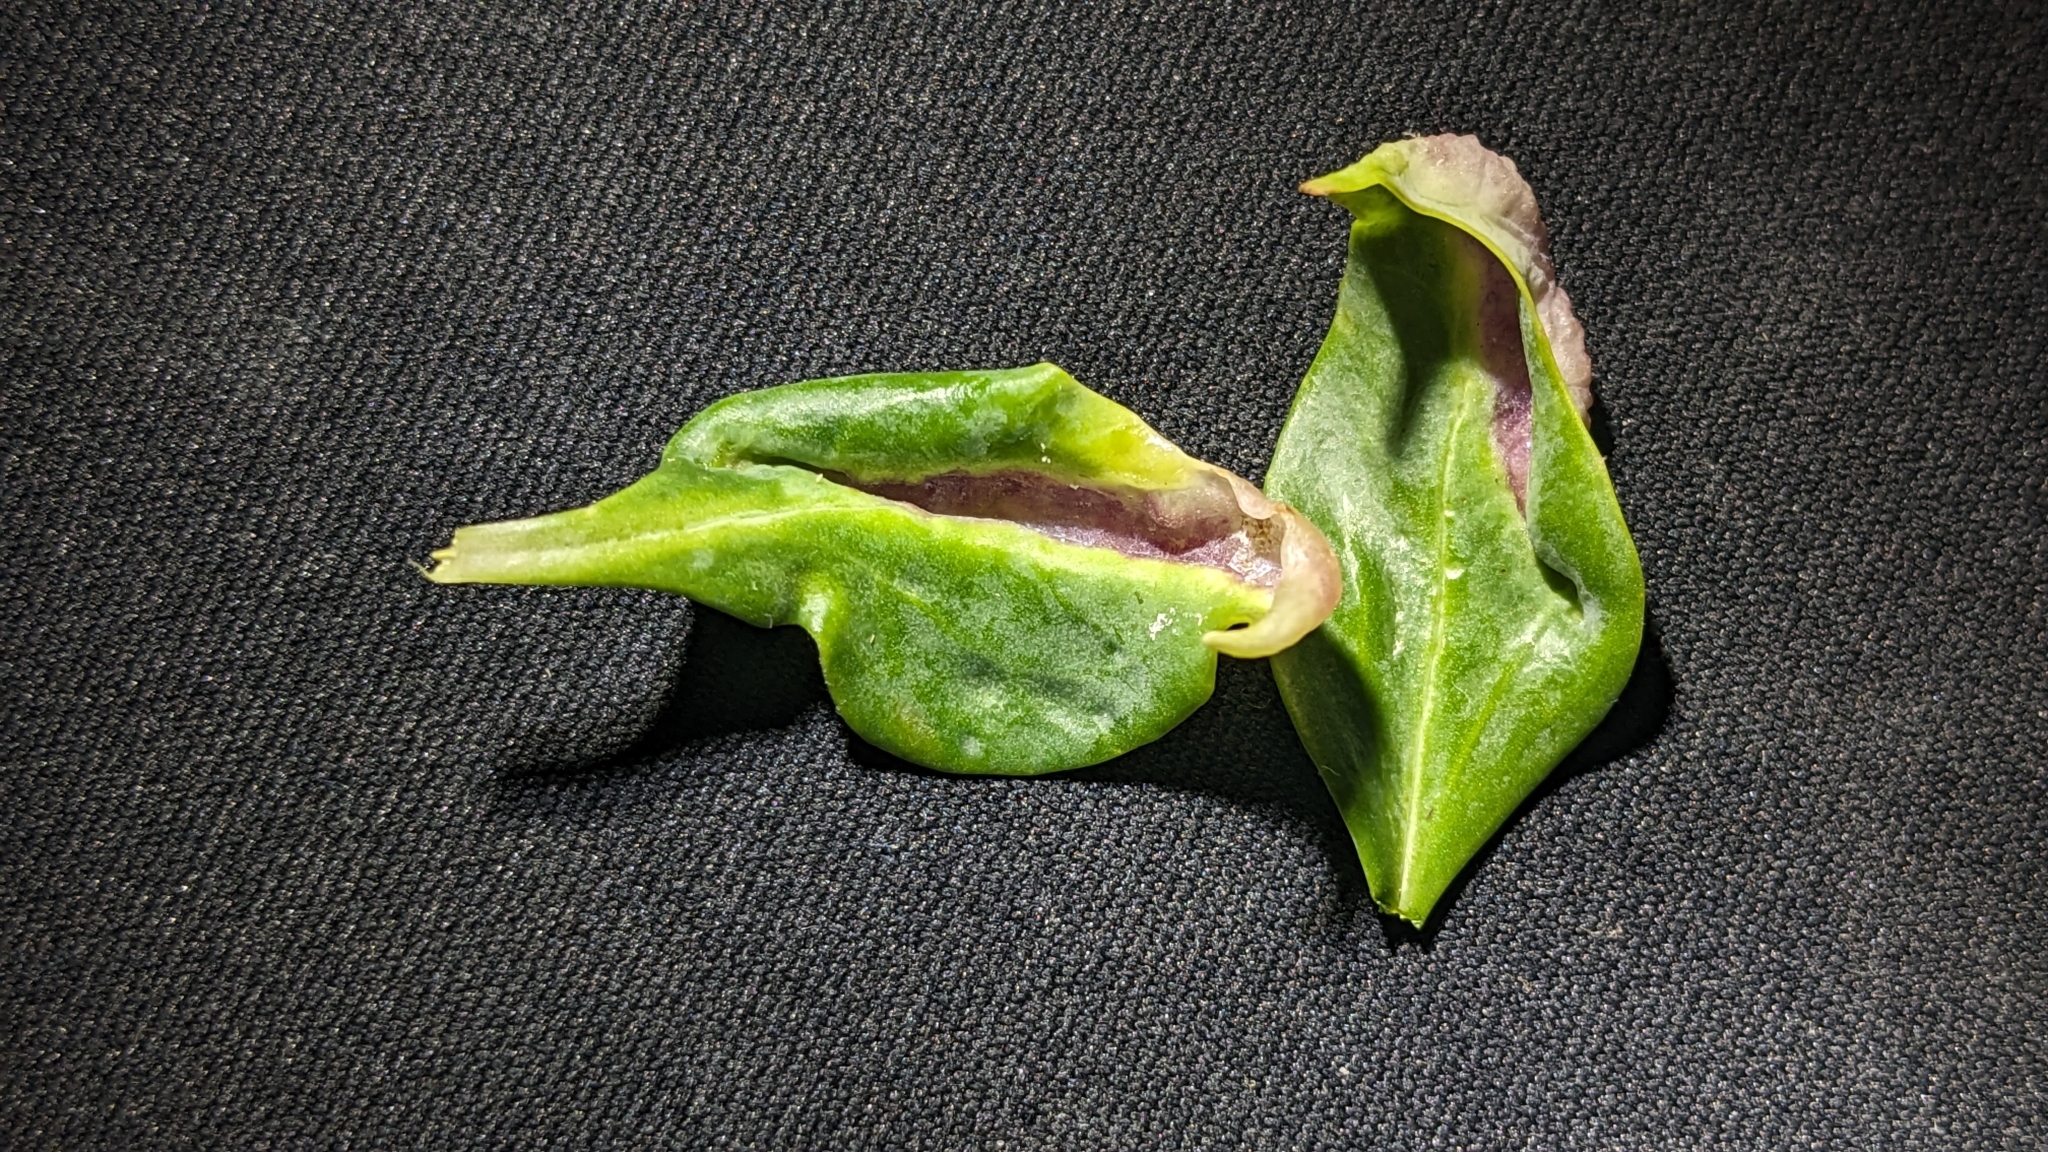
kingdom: Animalia
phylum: Arthropoda
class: Insecta
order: Hemiptera
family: Triozidae
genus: Trioza
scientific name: Trioza centranthi
